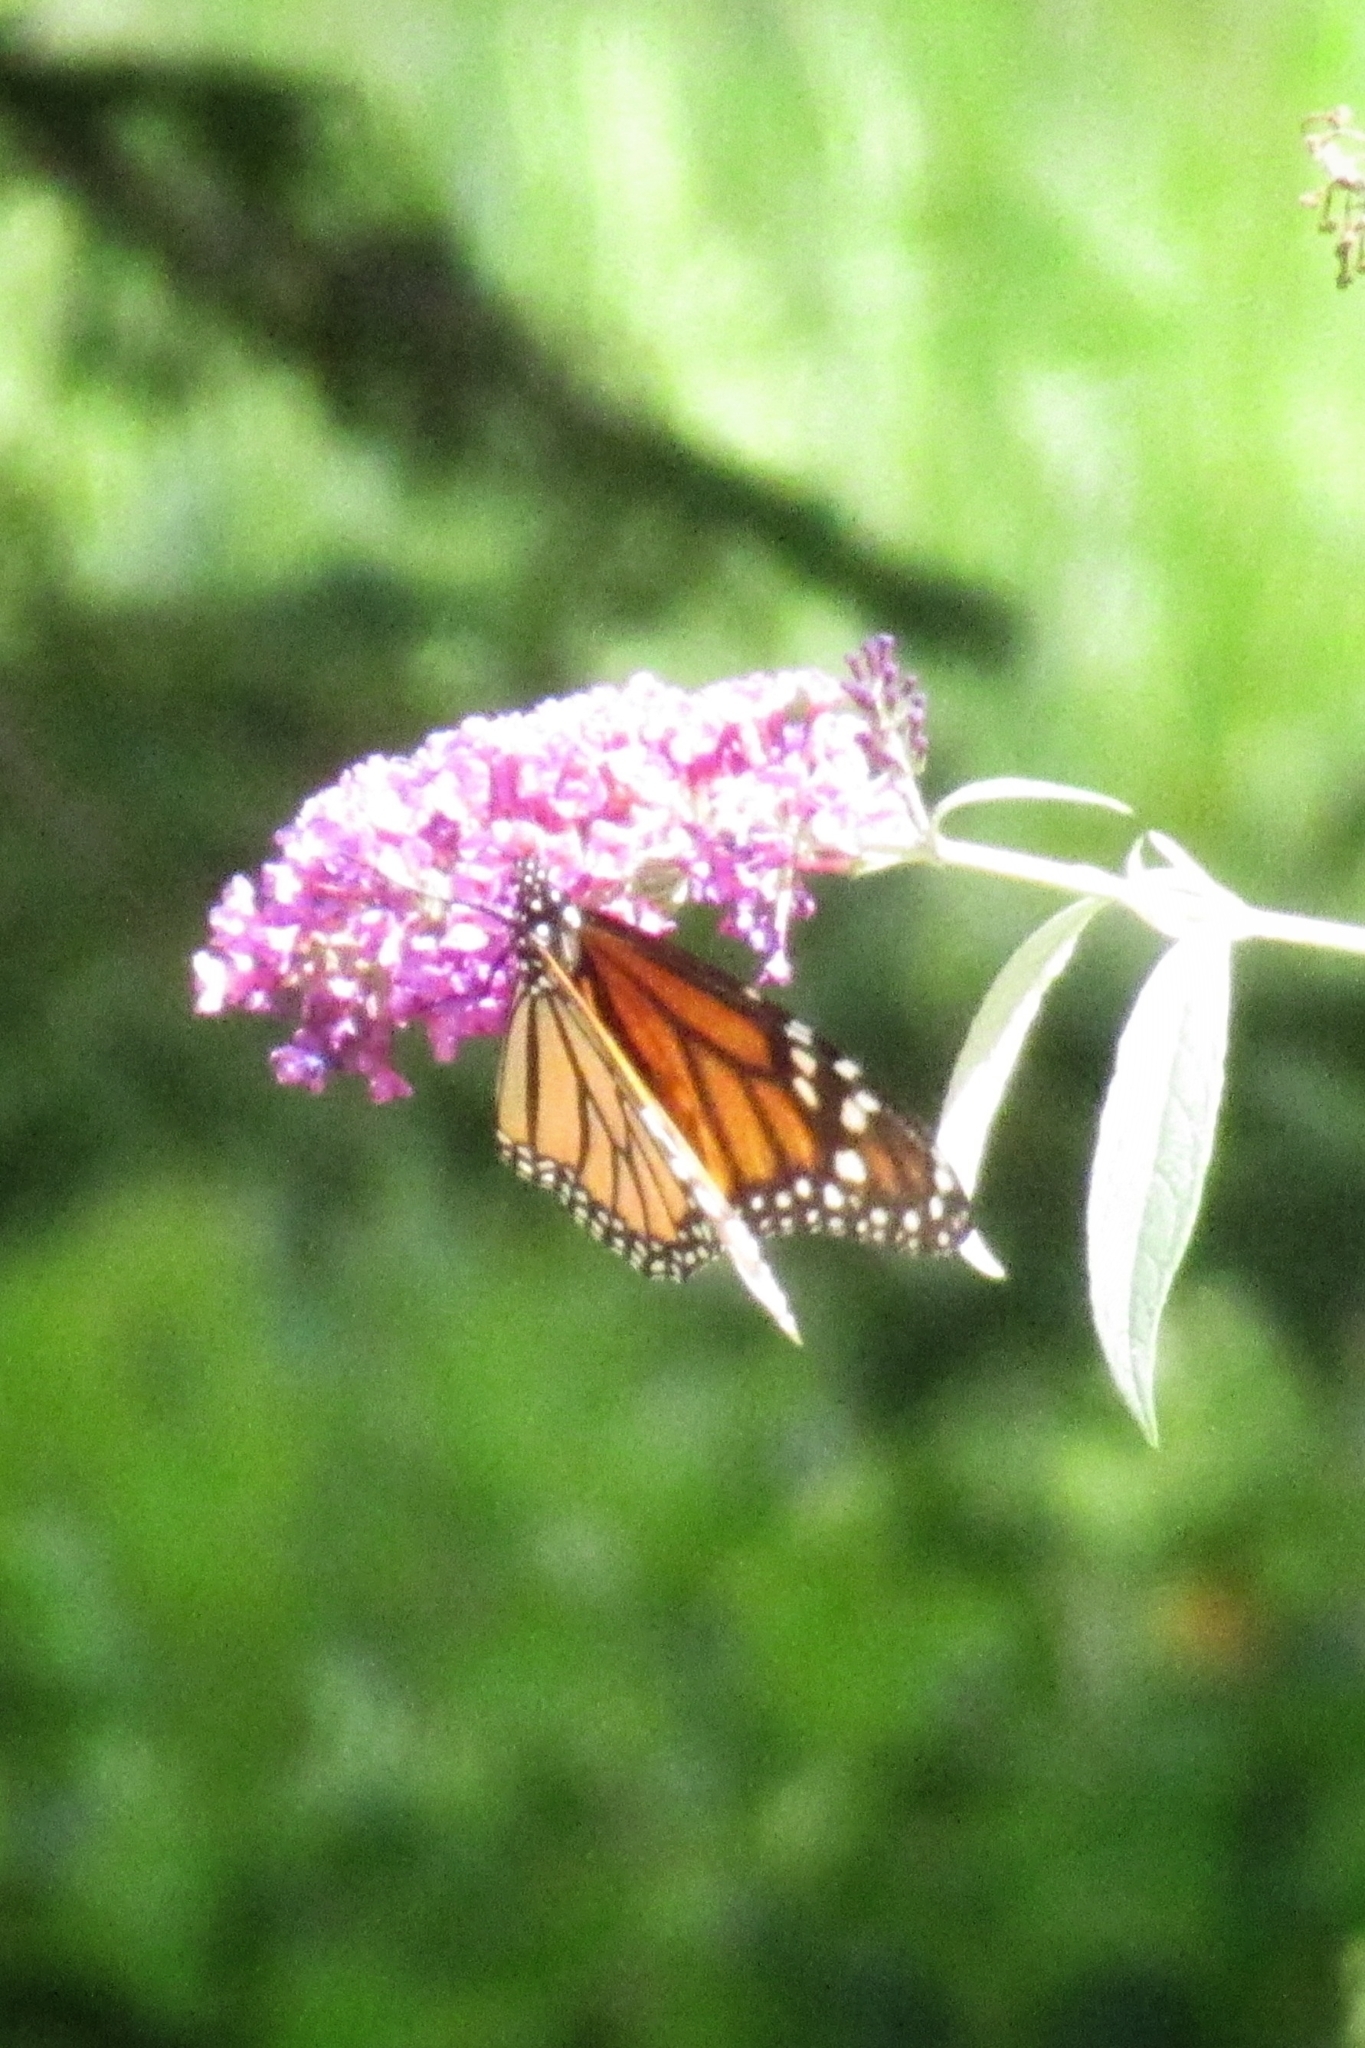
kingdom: Animalia
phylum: Arthropoda
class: Insecta
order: Lepidoptera
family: Nymphalidae
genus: Danaus
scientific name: Danaus plexippus
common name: Monarch
